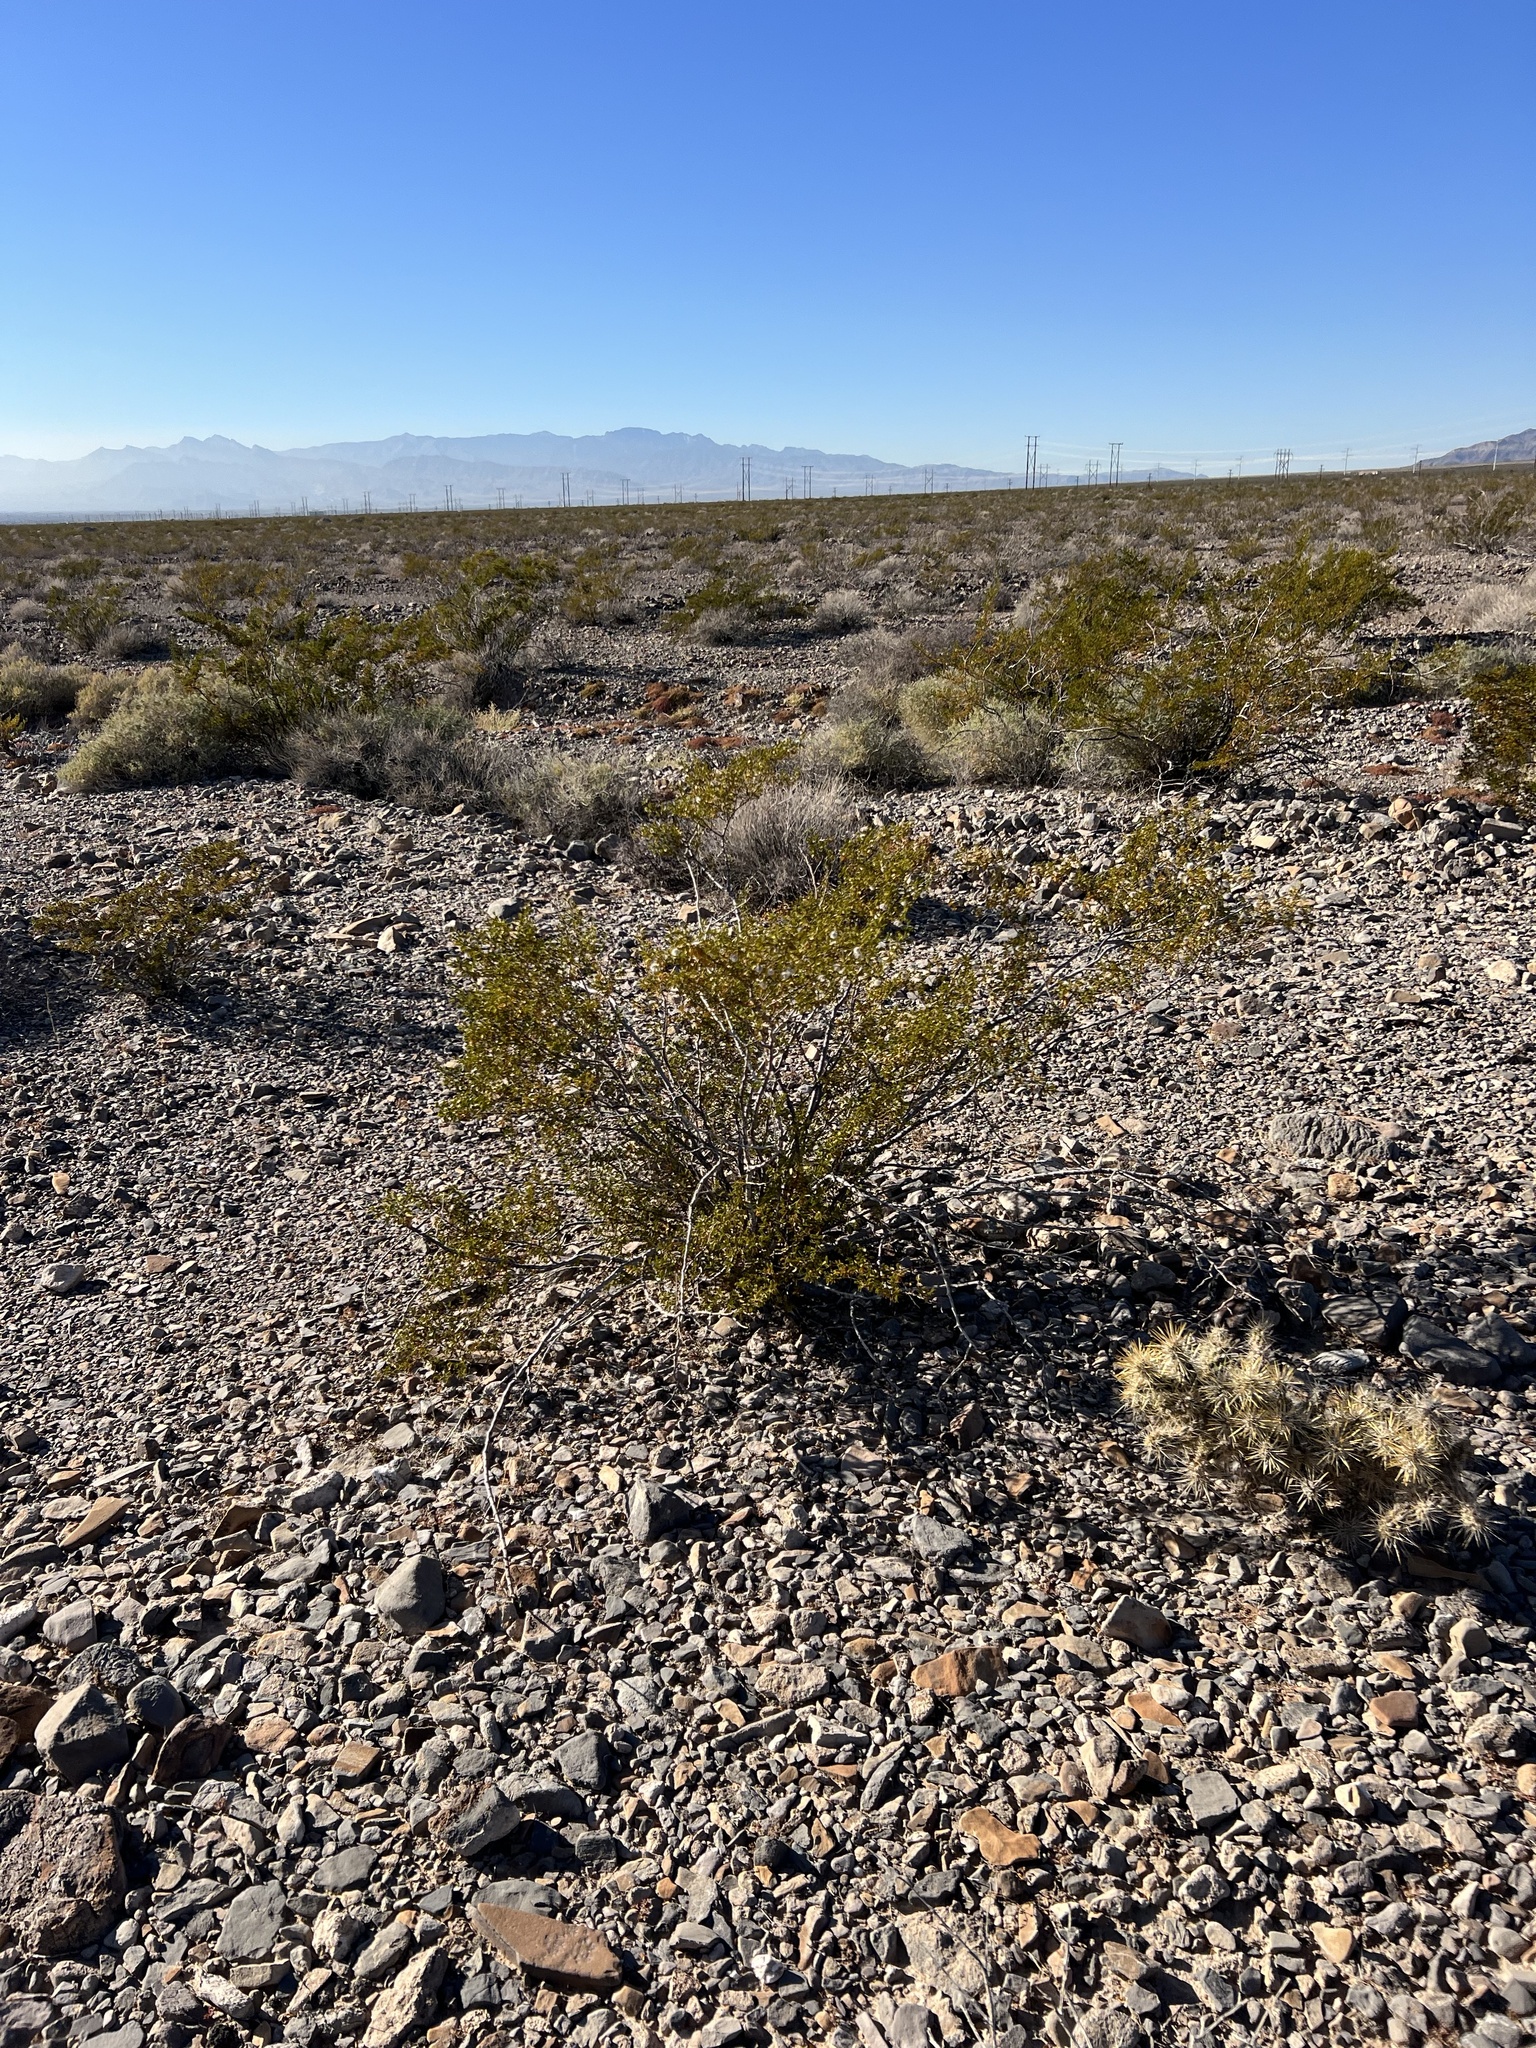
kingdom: Plantae
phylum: Tracheophyta
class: Magnoliopsida
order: Zygophyllales
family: Zygophyllaceae
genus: Larrea
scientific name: Larrea tridentata
